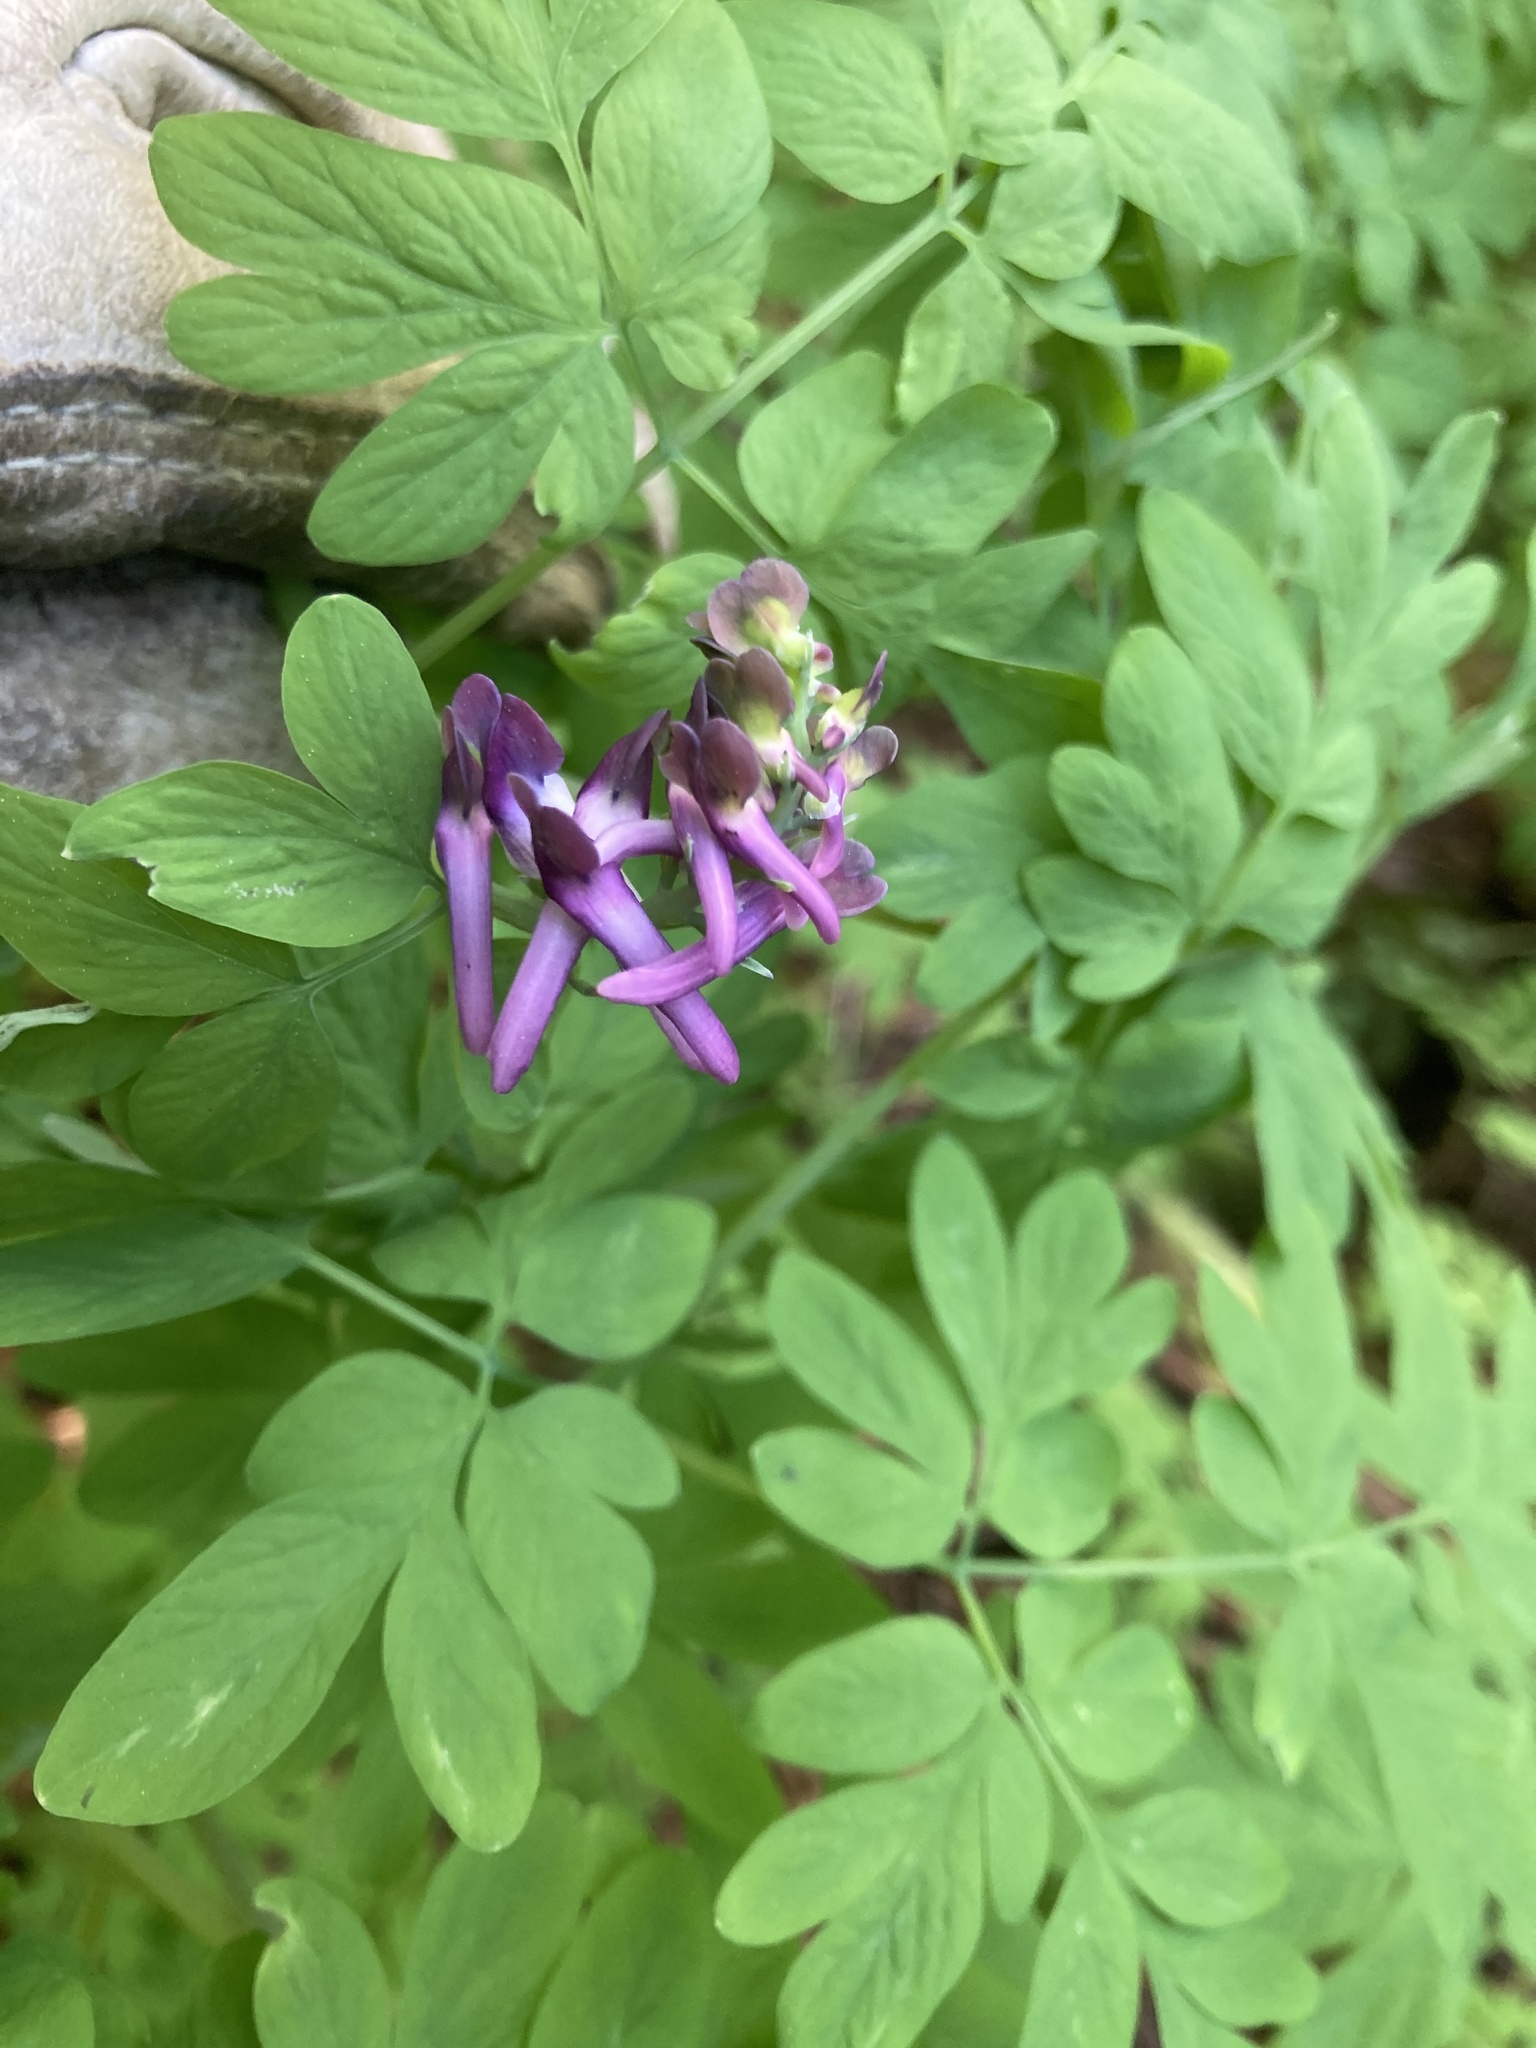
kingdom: Plantae
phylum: Tracheophyta
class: Magnoliopsida
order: Ranunculales
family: Papaveraceae
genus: Corydalis
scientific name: Corydalis scouleri
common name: Scouler's corydalis
